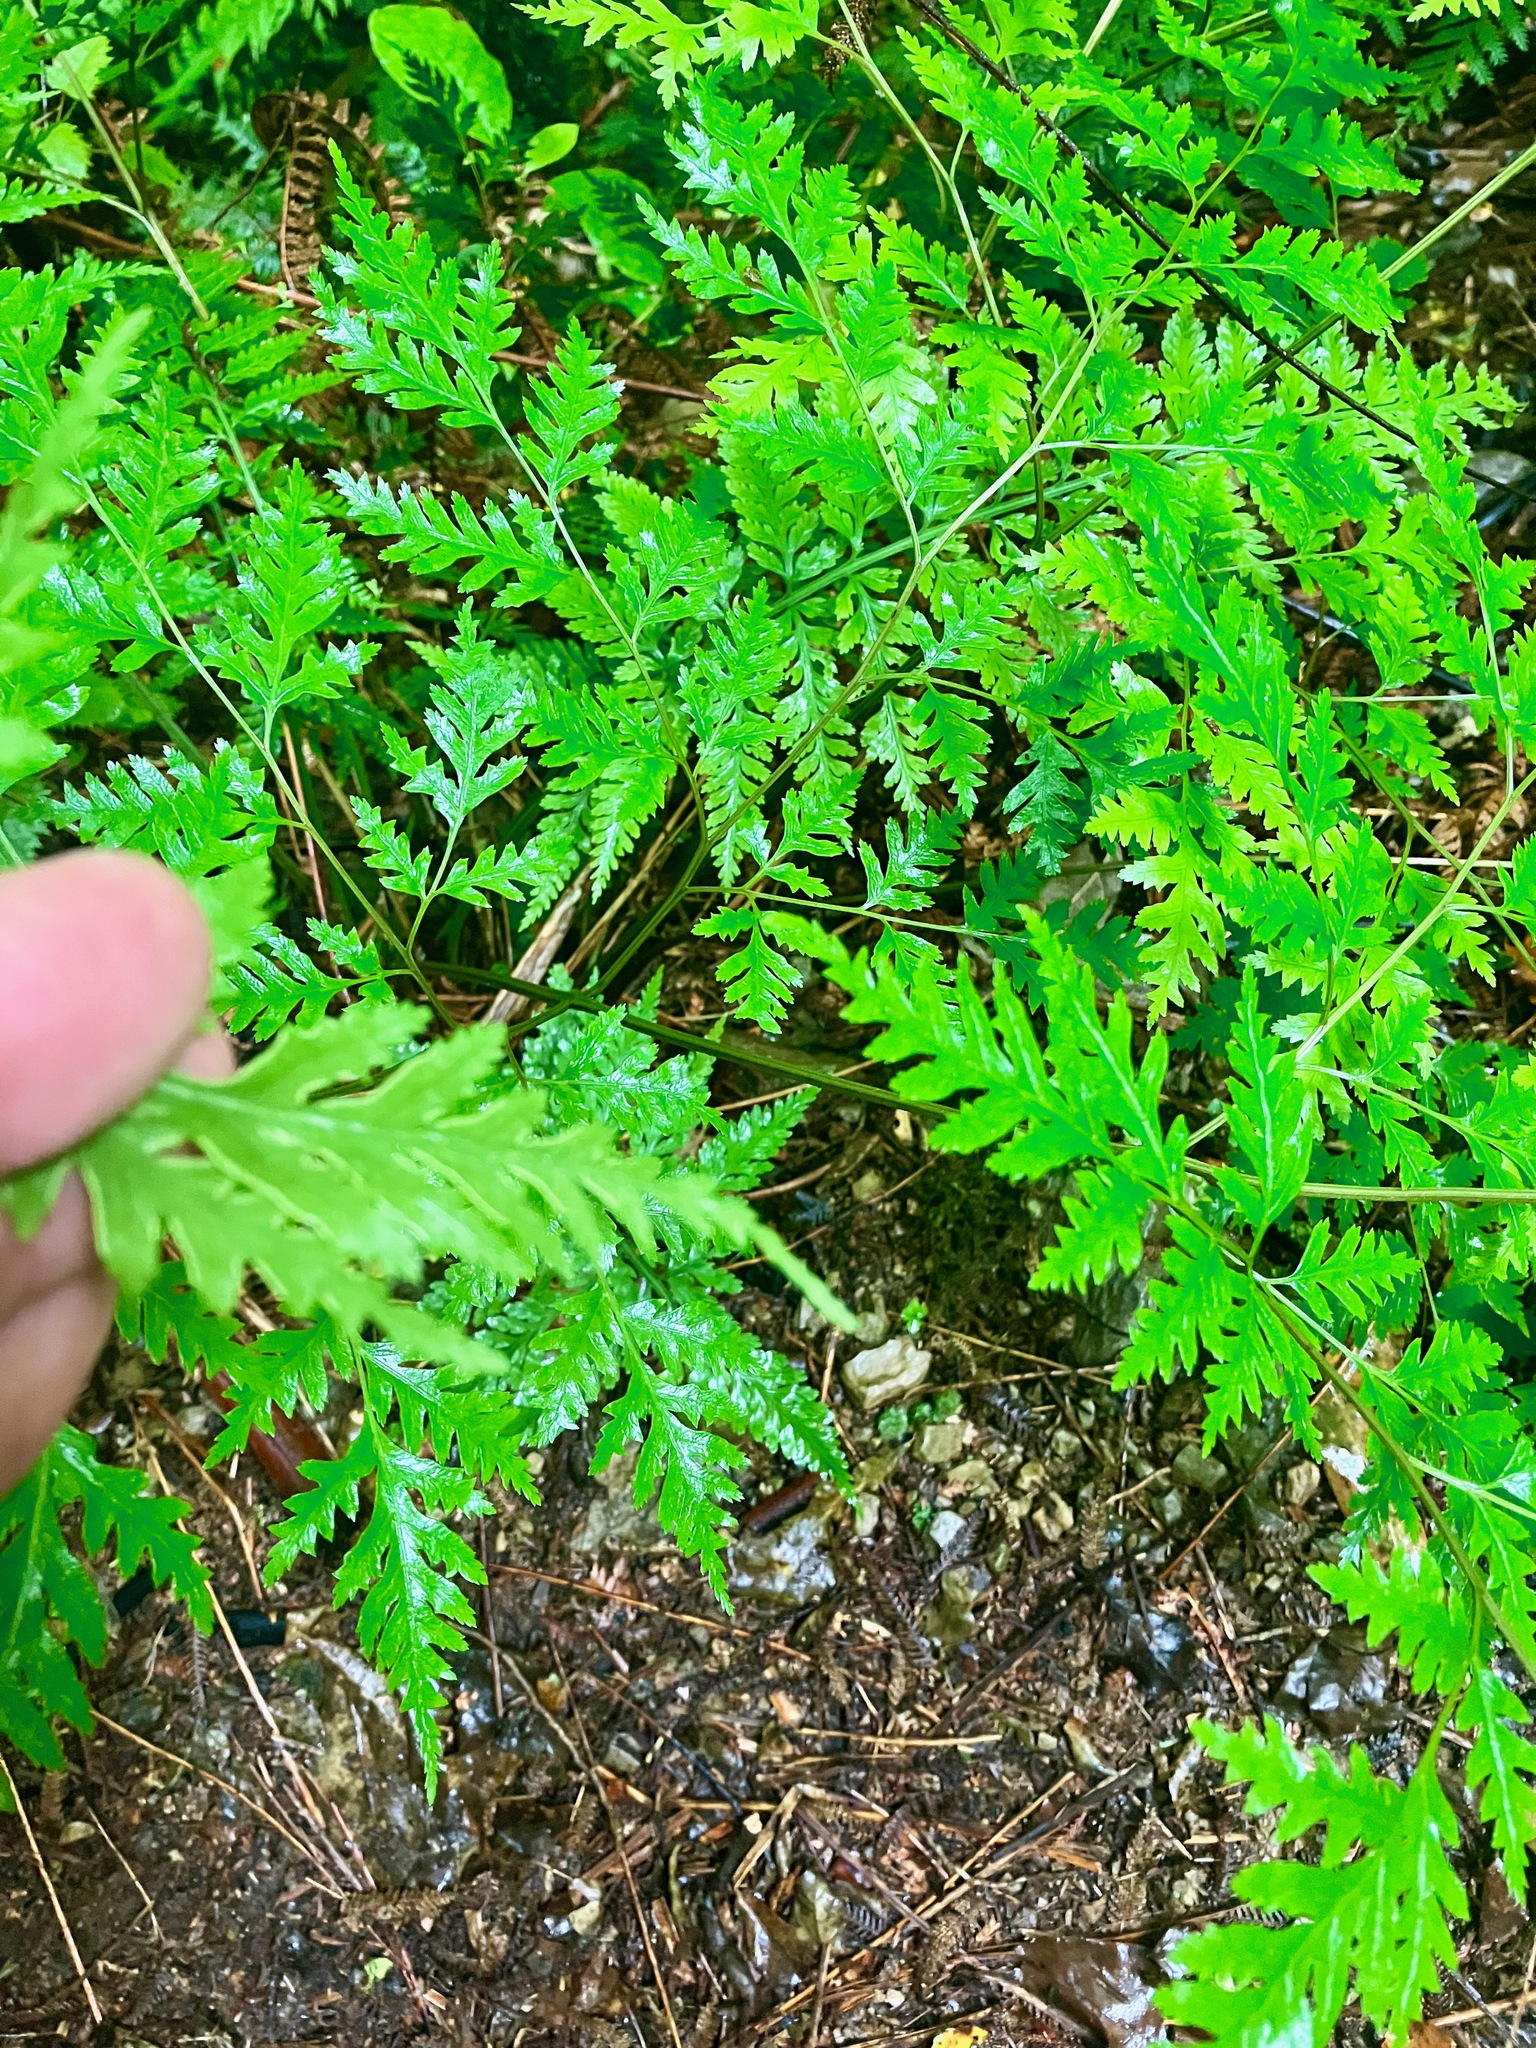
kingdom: Plantae
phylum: Tracheophyta
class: Polypodiopsida
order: Polypodiales
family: Pteridaceae
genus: Pteris
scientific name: Pteris macilenta
